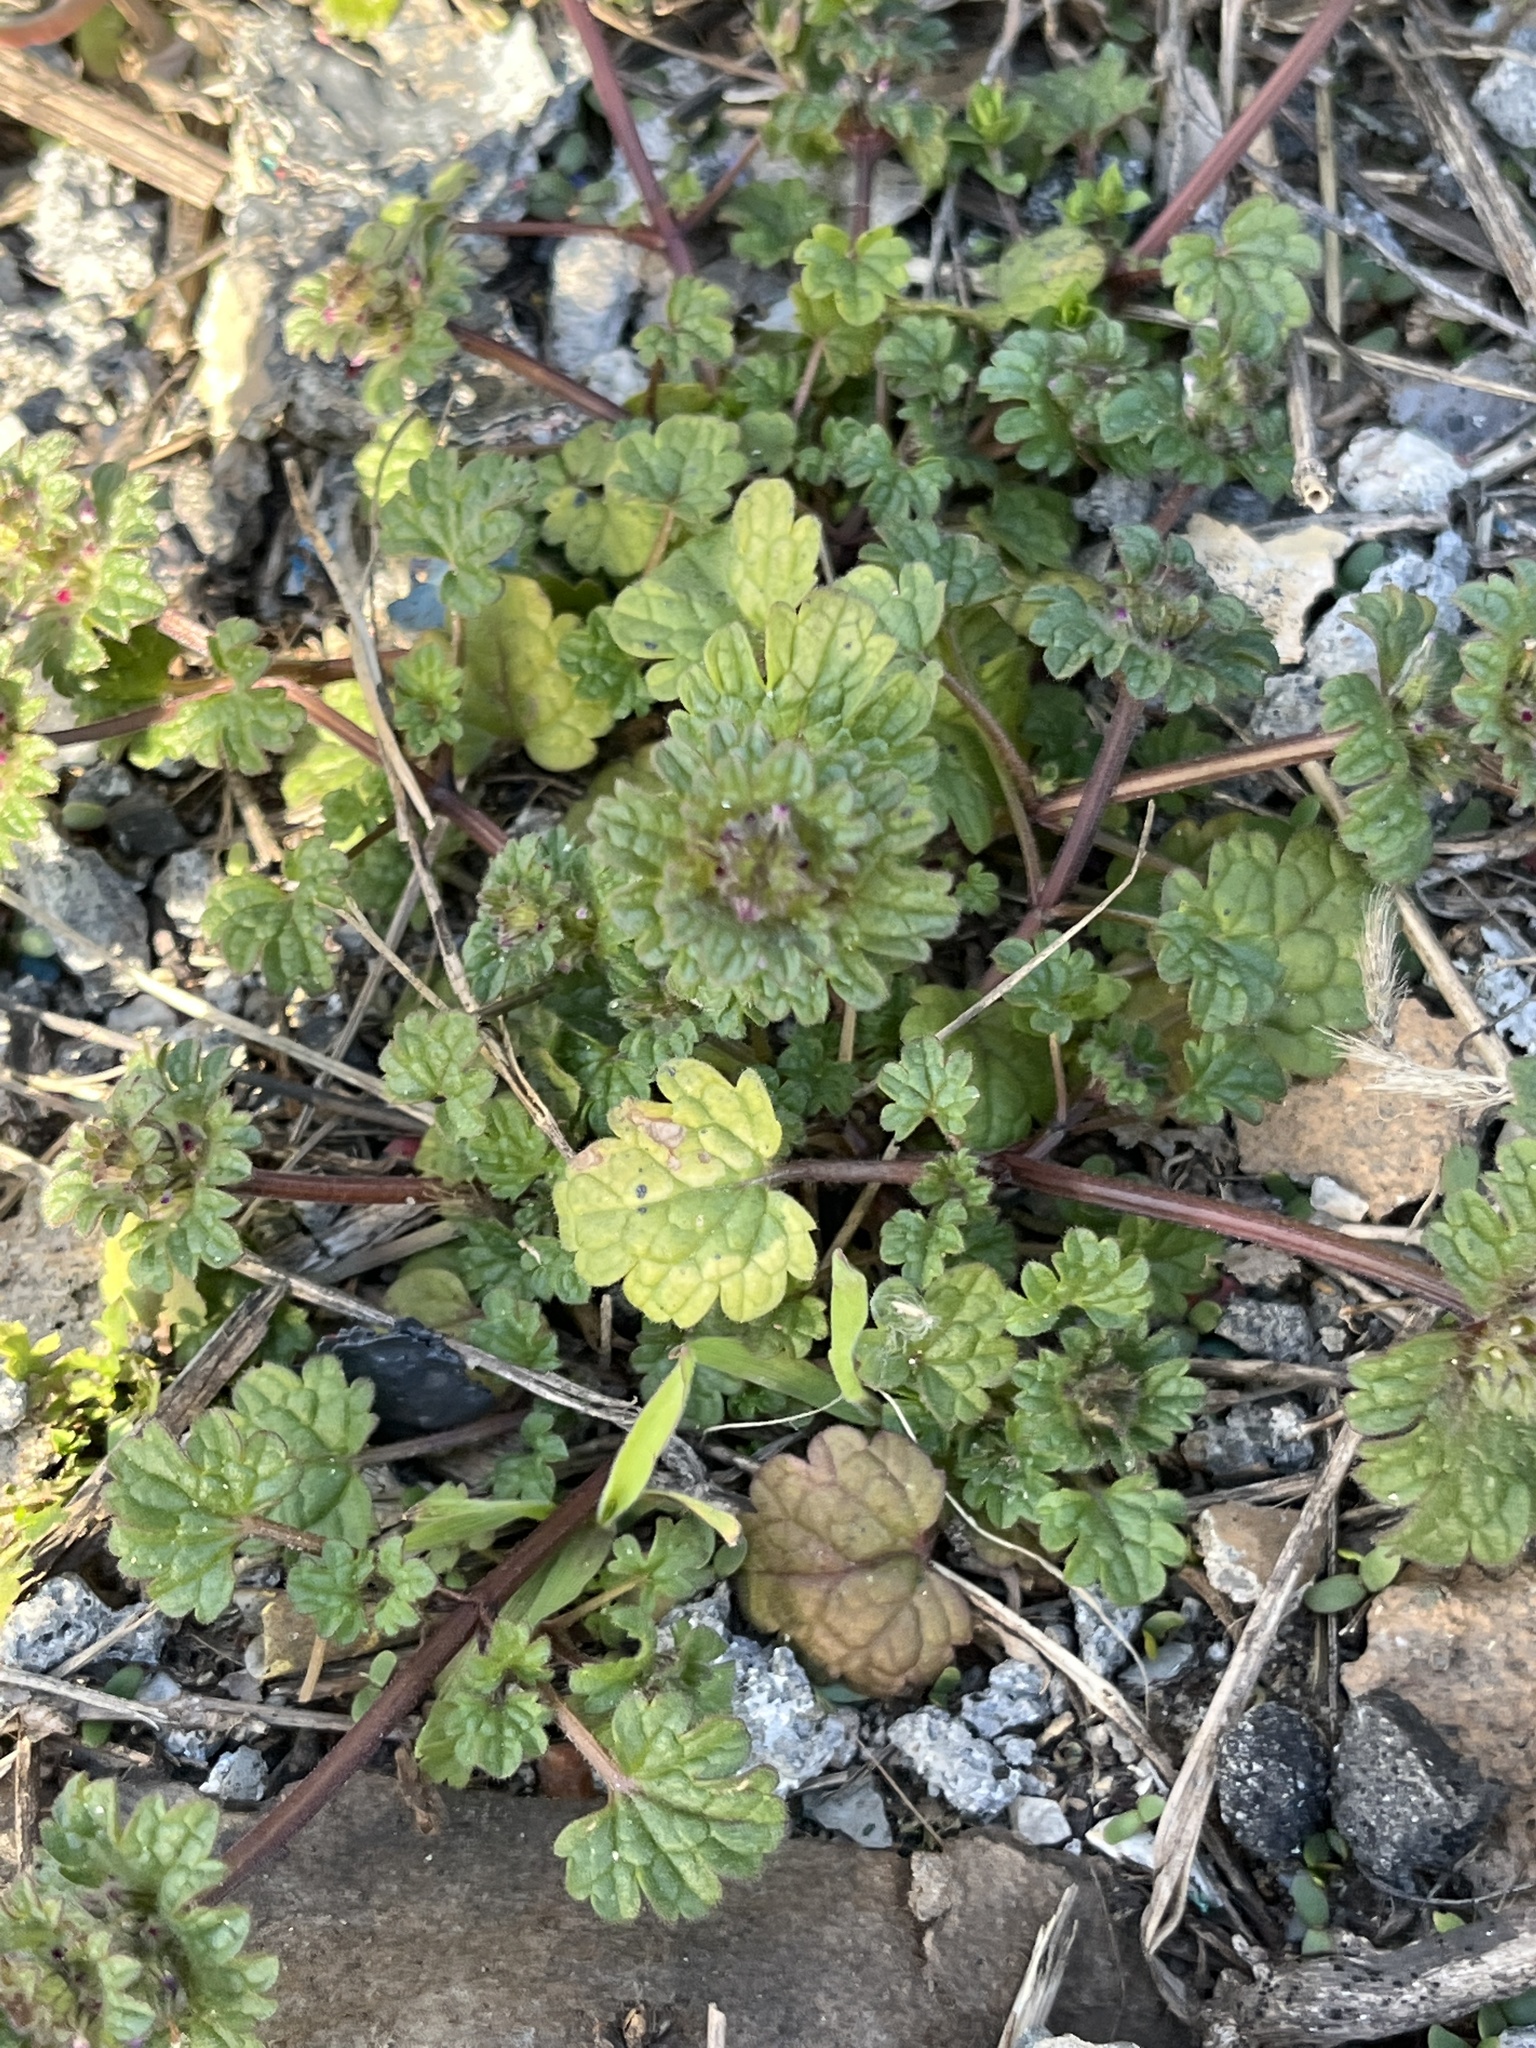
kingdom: Plantae
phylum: Tracheophyta
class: Magnoliopsida
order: Lamiales
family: Lamiaceae
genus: Lamium
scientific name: Lamium amplexicaule
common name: Henbit dead-nettle
